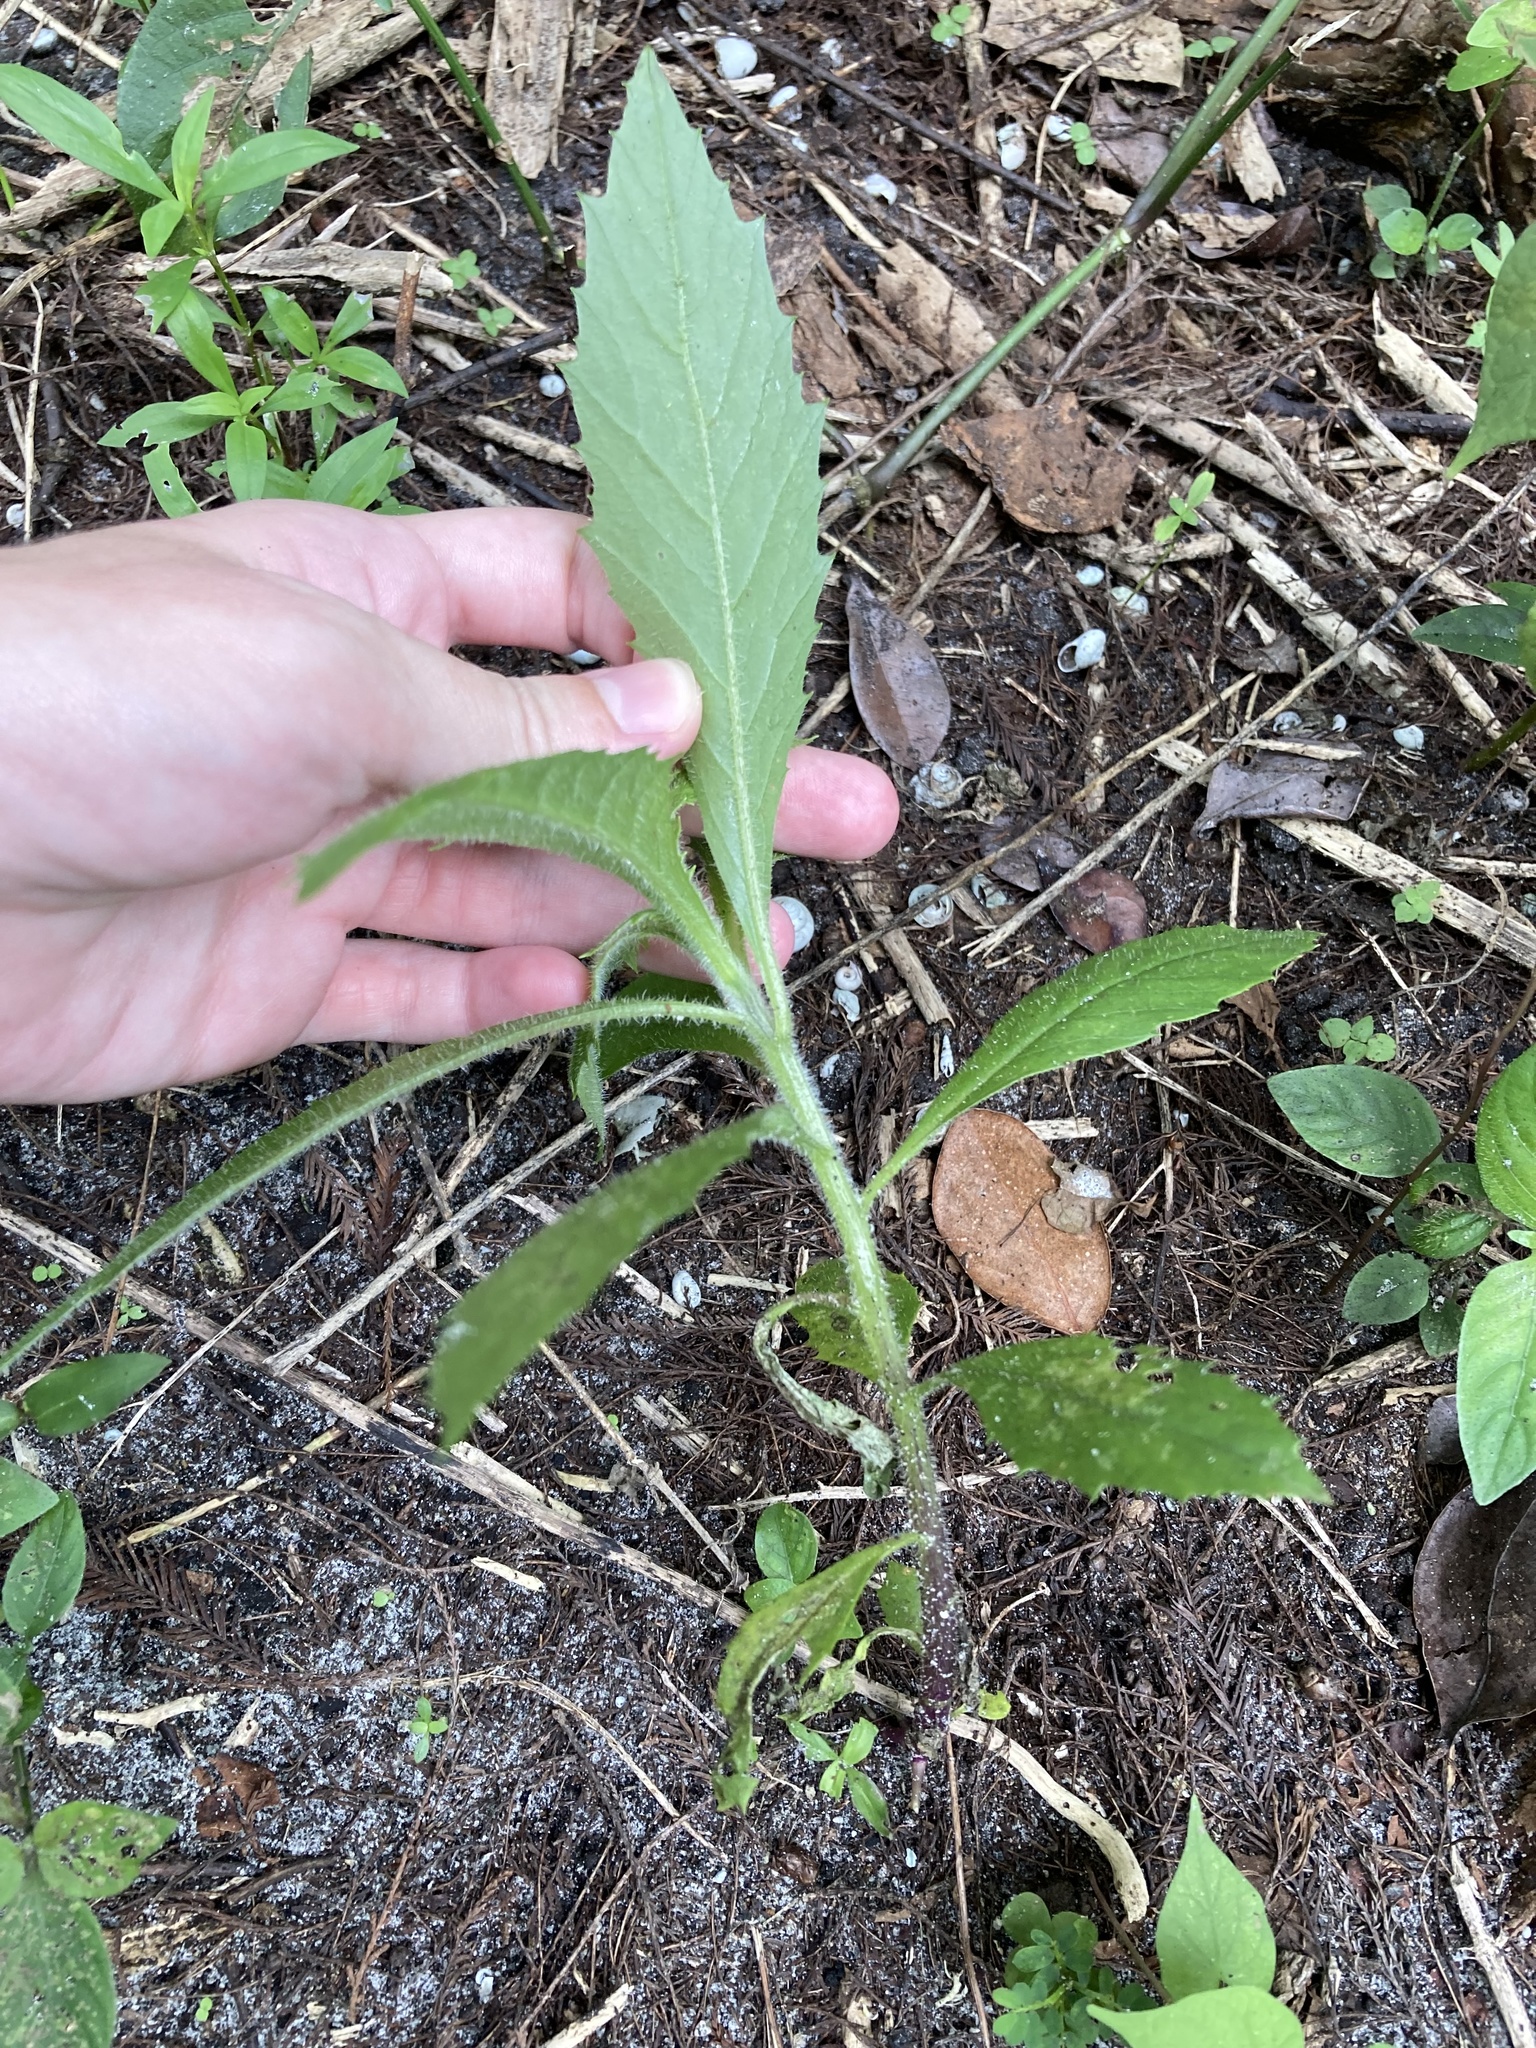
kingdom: Plantae
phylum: Tracheophyta
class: Magnoliopsida
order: Asterales
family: Asteraceae
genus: Erechtites
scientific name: Erechtites hieraciifolius
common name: American burnweed
